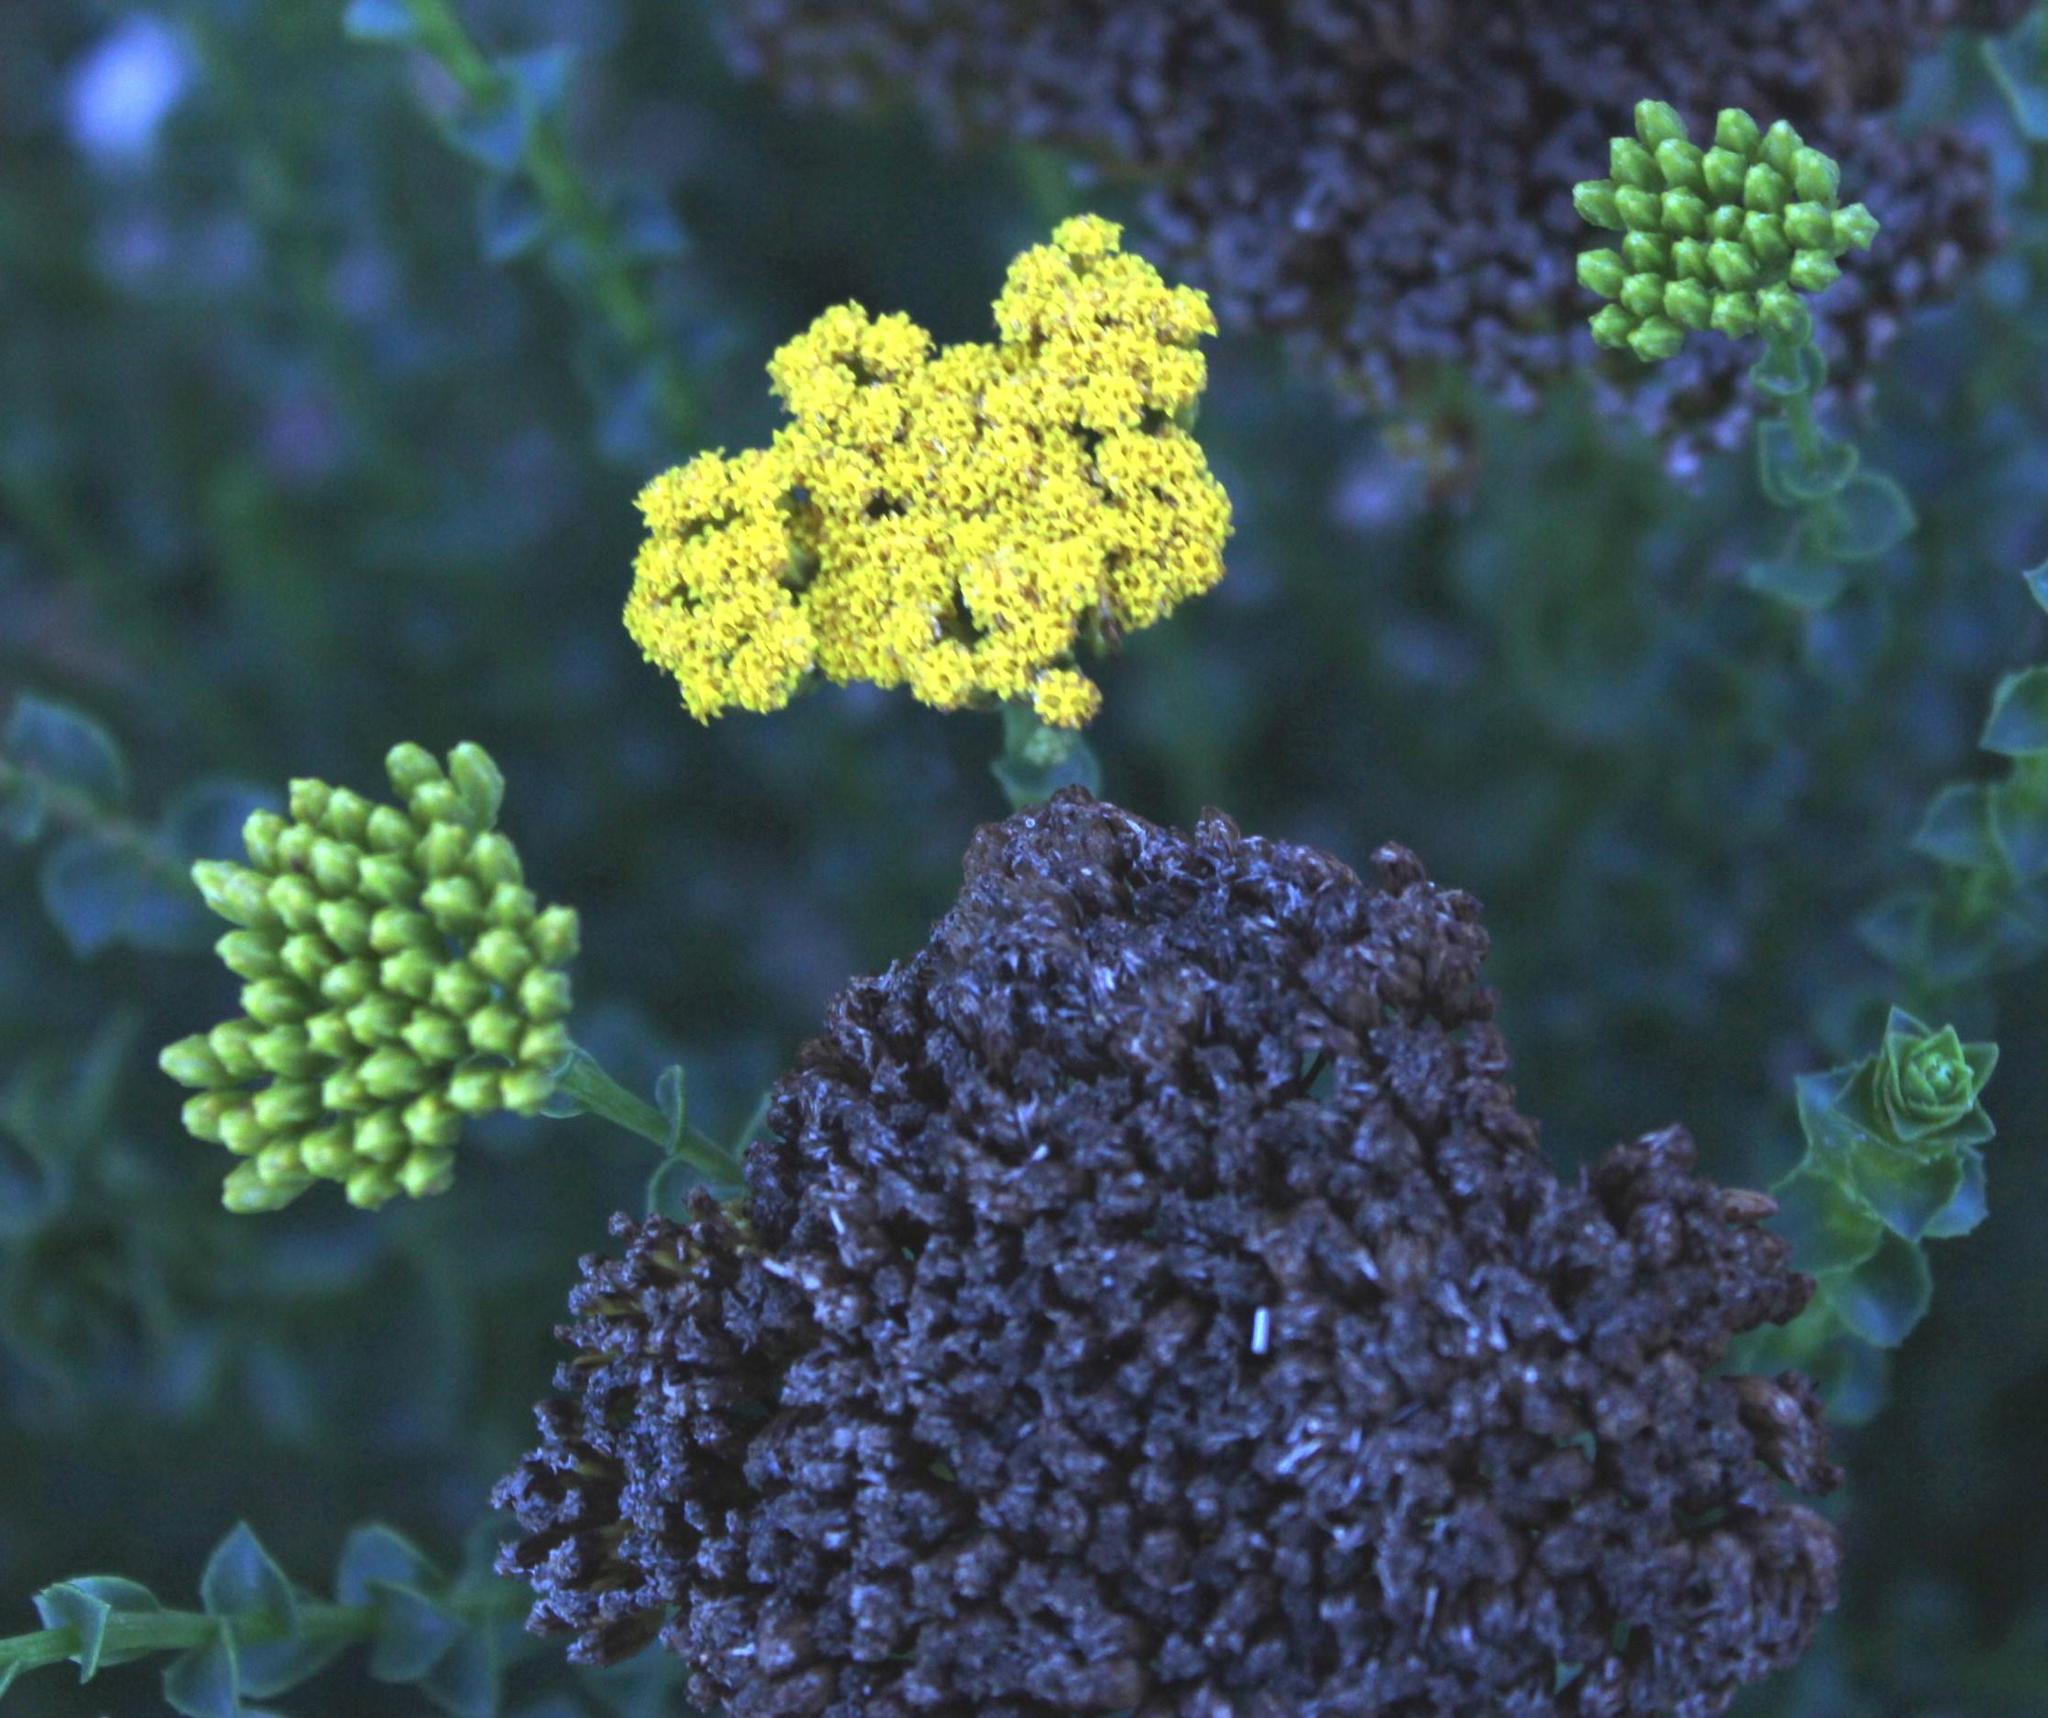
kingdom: Plantae
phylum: Tracheophyta
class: Magnoliopsida
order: Asterales
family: Asteraceae
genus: Athanasia
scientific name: Athanasia dentata
